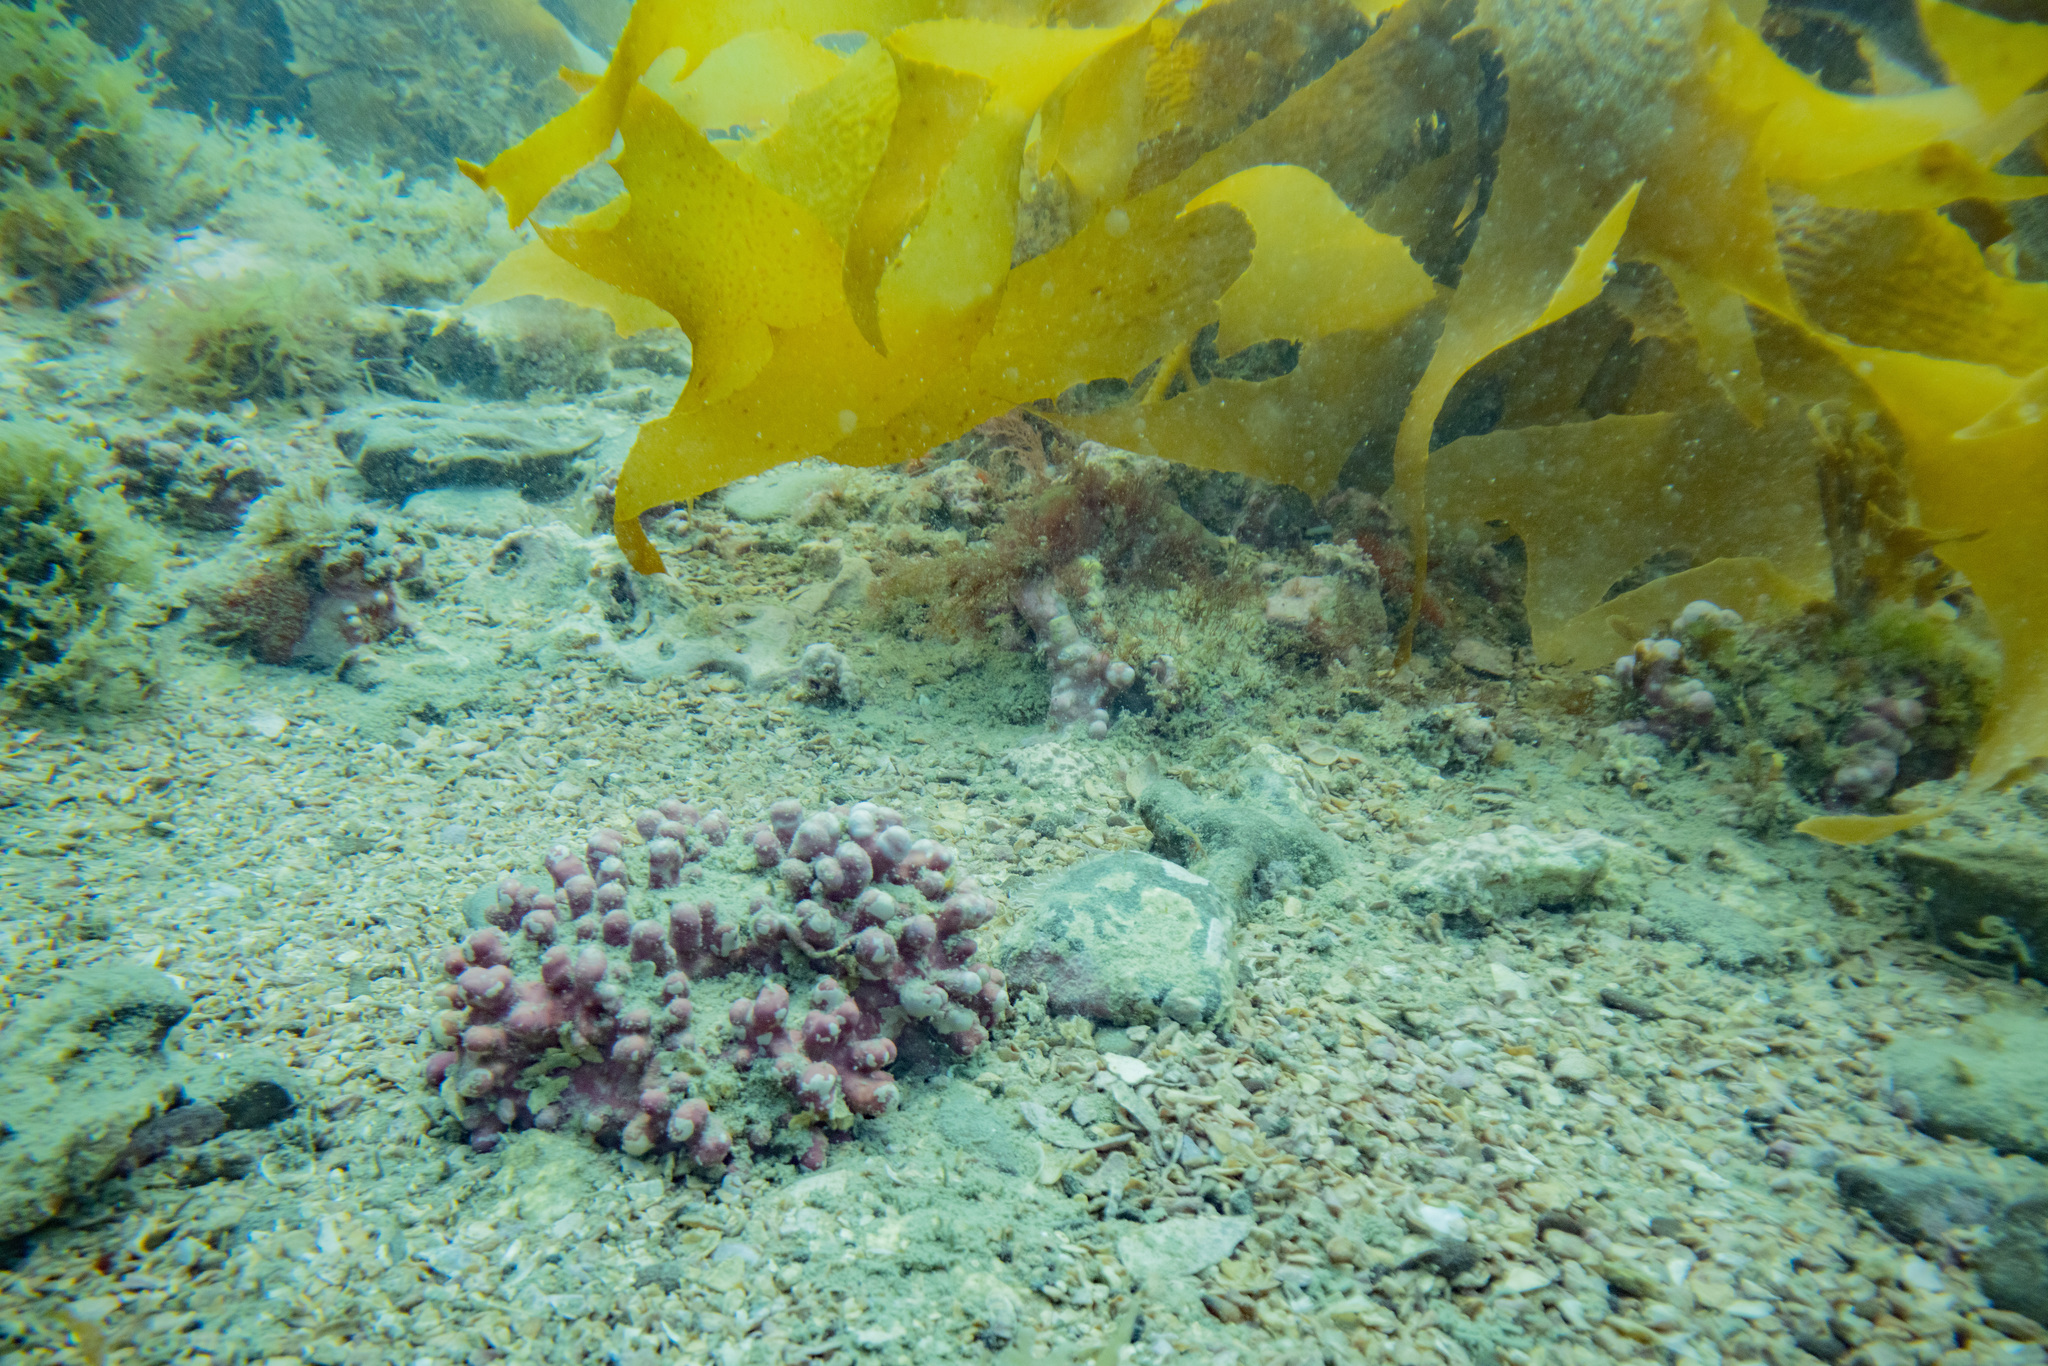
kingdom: Plantae
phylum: Rhodophyta
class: Florideophyceae
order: Corallinales
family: Hapalidiaceae
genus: Lithothamnion
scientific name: Lithothamnion crispatum
